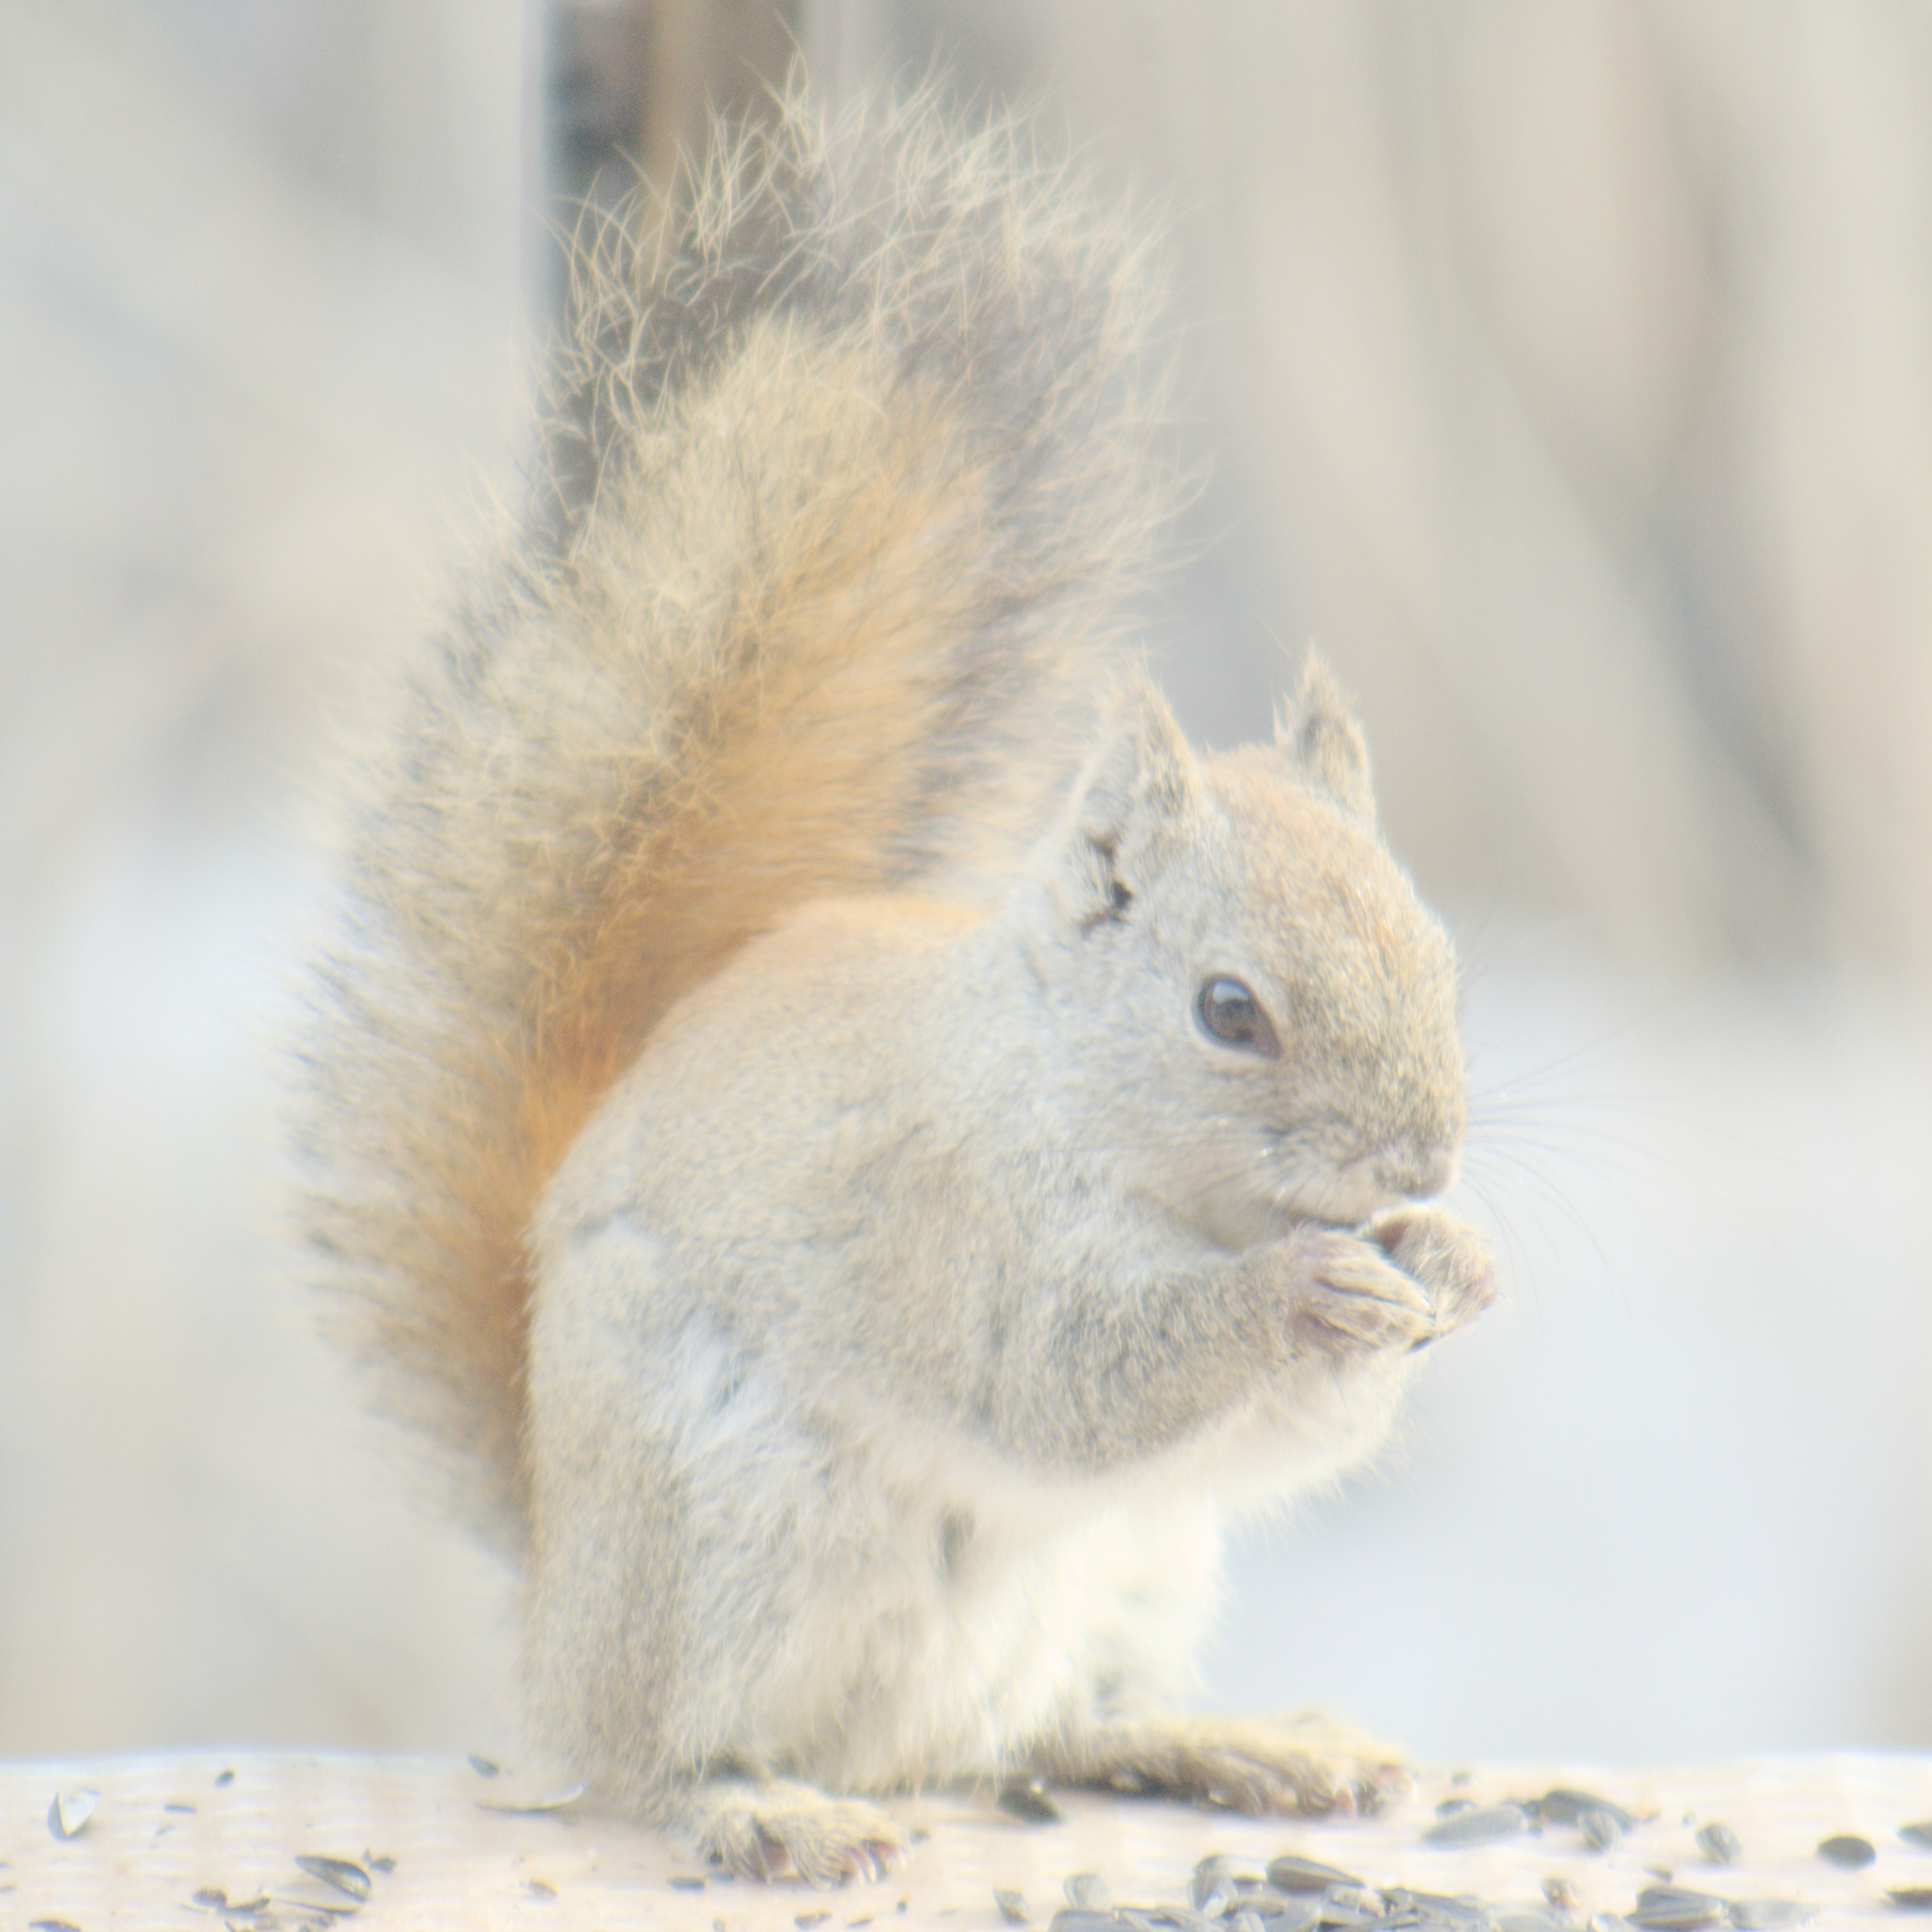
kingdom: Animalia
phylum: Chordata
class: Mammalia
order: Rodentia
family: Sciuridae
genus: Tamiasciurus
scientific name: Tamiasciurus hudsonicus
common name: Red squirrel
